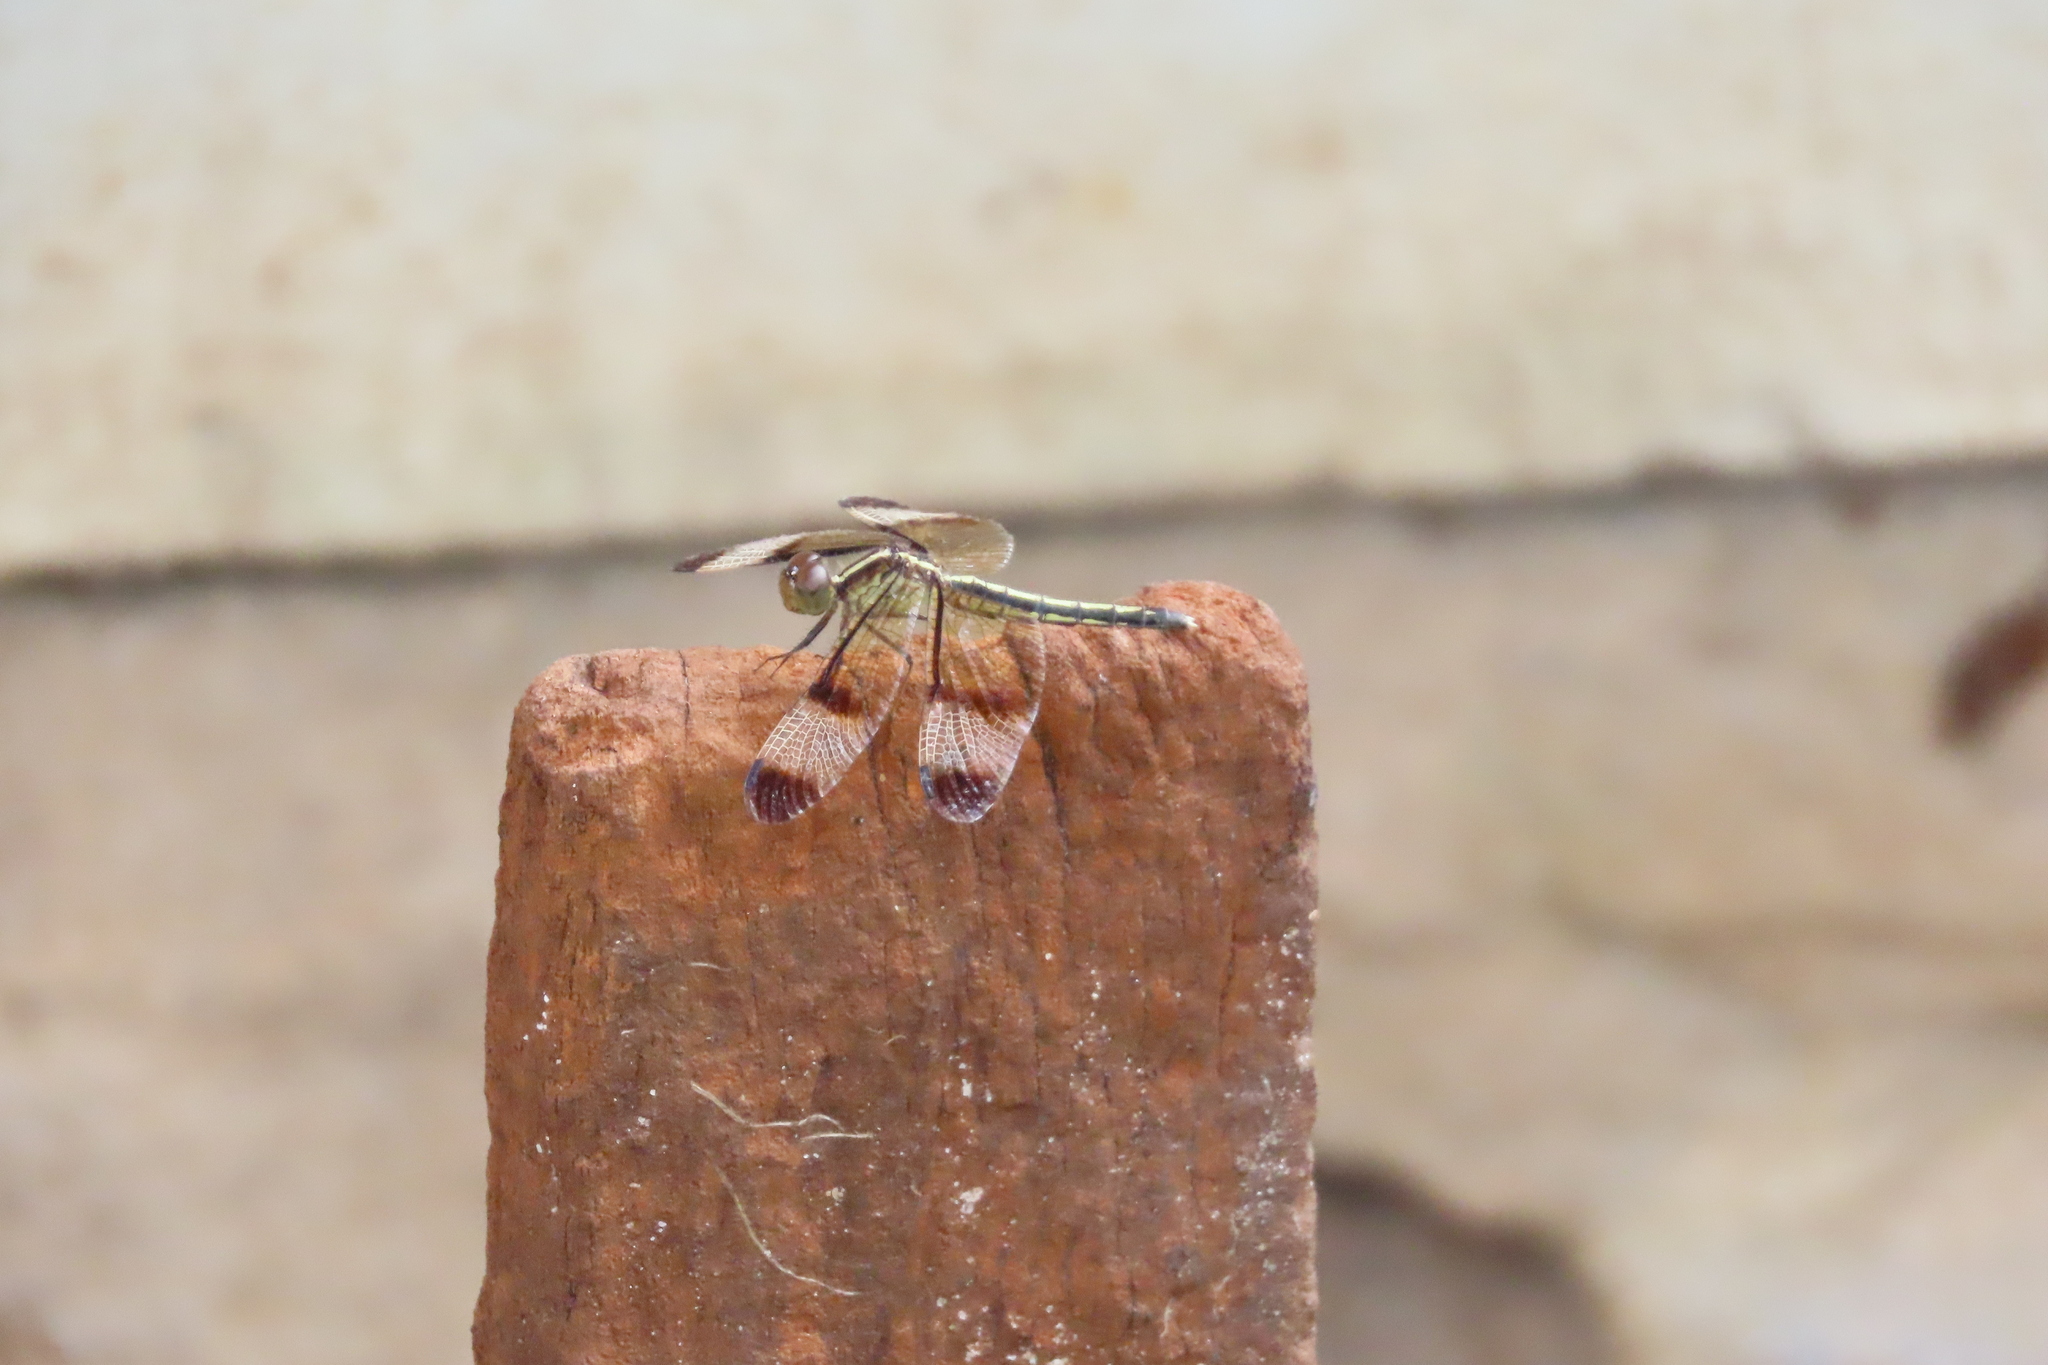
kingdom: Animalia
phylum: Arthropoda
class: Insecta
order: Odonata
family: Libellulidae
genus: Neurothemis
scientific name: Neurothemis tullia
